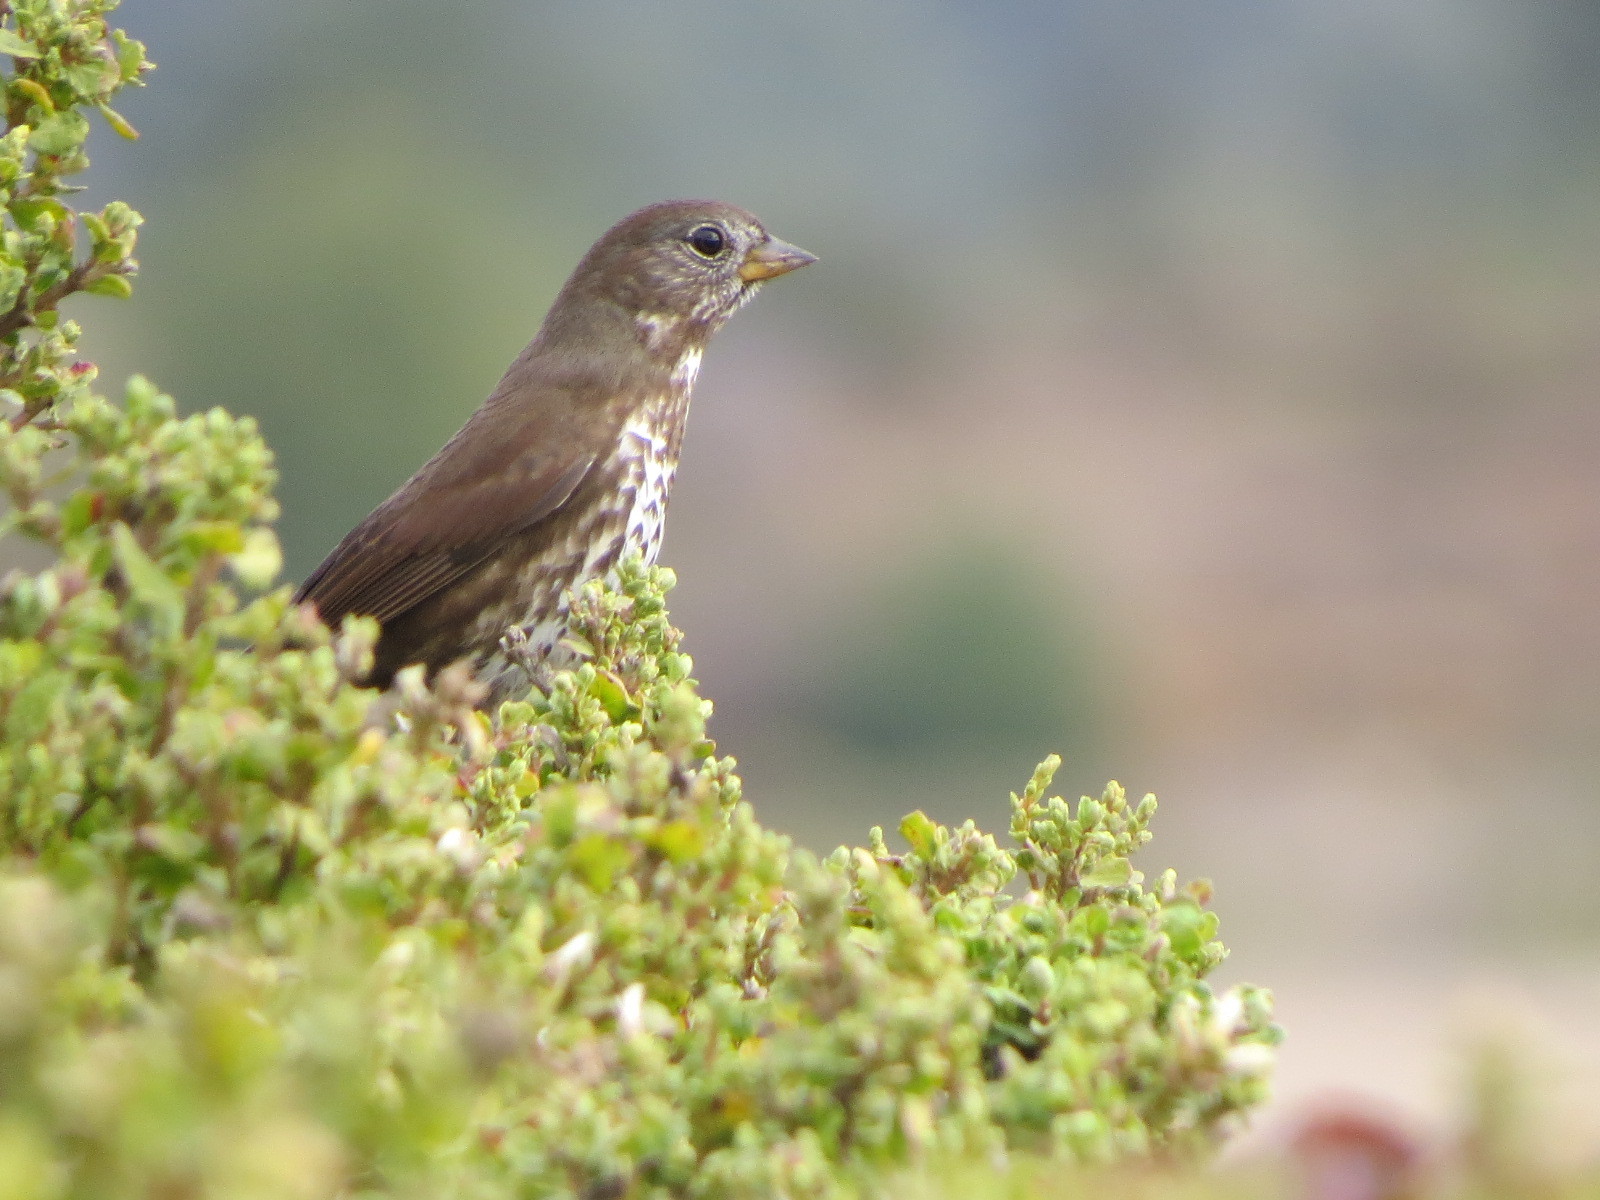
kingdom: Animalia
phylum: Chordata
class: Aves
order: Passeriformes
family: Passerellidae
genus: Passerella
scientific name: Passerella iliaca
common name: Fox sparrow
